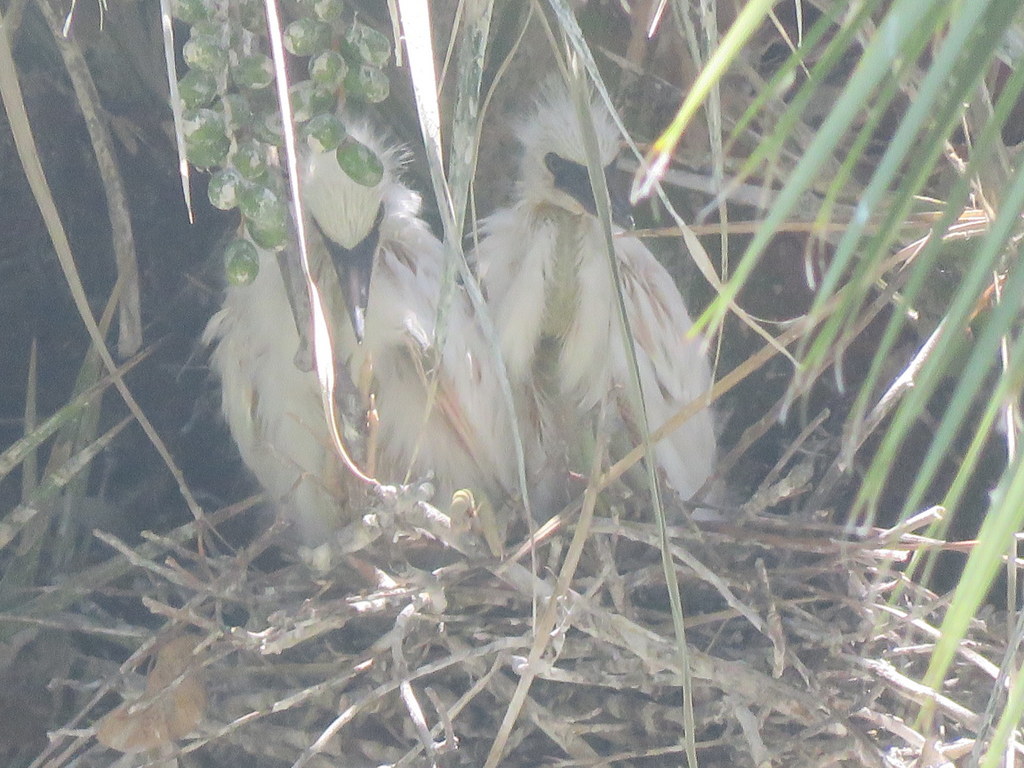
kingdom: Animalia
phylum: Chordata
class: Aves
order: Pelecaniformes
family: Ardeidae
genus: Egretta
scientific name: Egretta thula
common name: Snowy egret
